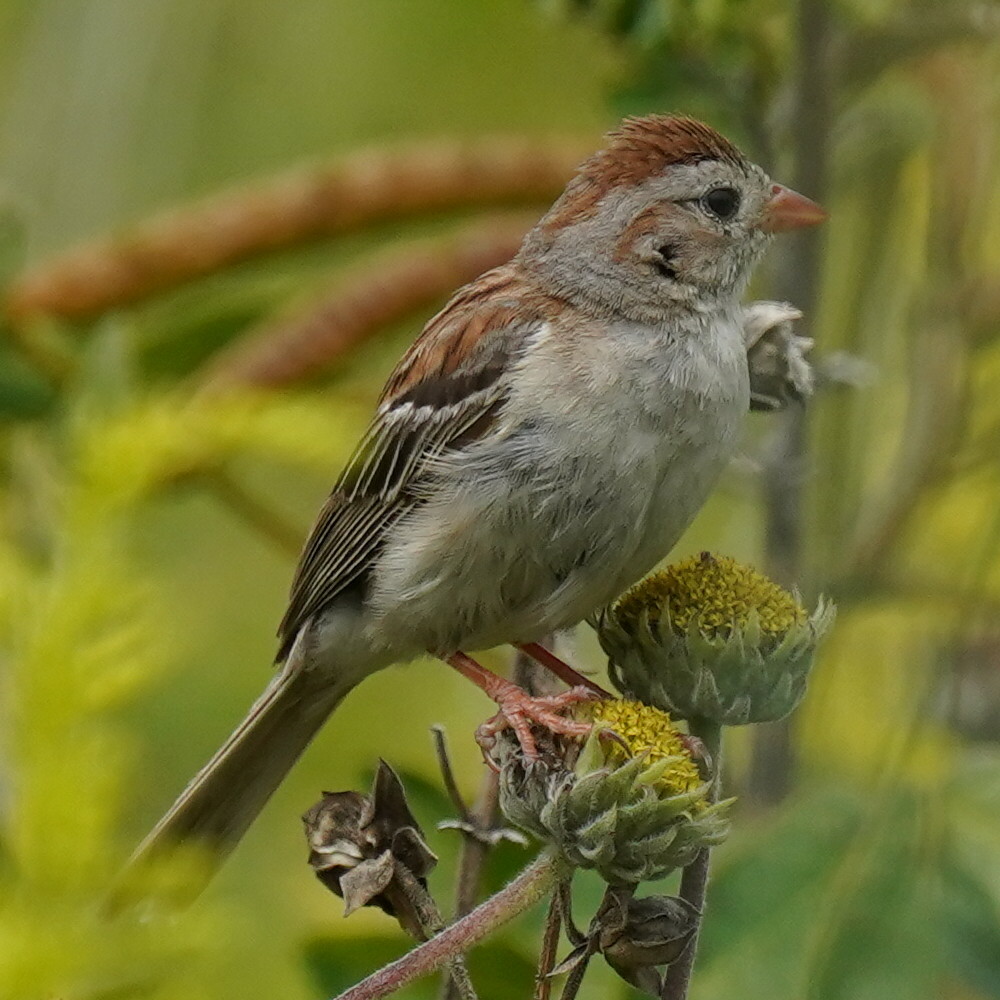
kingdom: Animalia
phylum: Chordata
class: Aves
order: Passeriformes
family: Passerellidae
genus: Spizella
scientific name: Spizella pusilla
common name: Field sparrow
